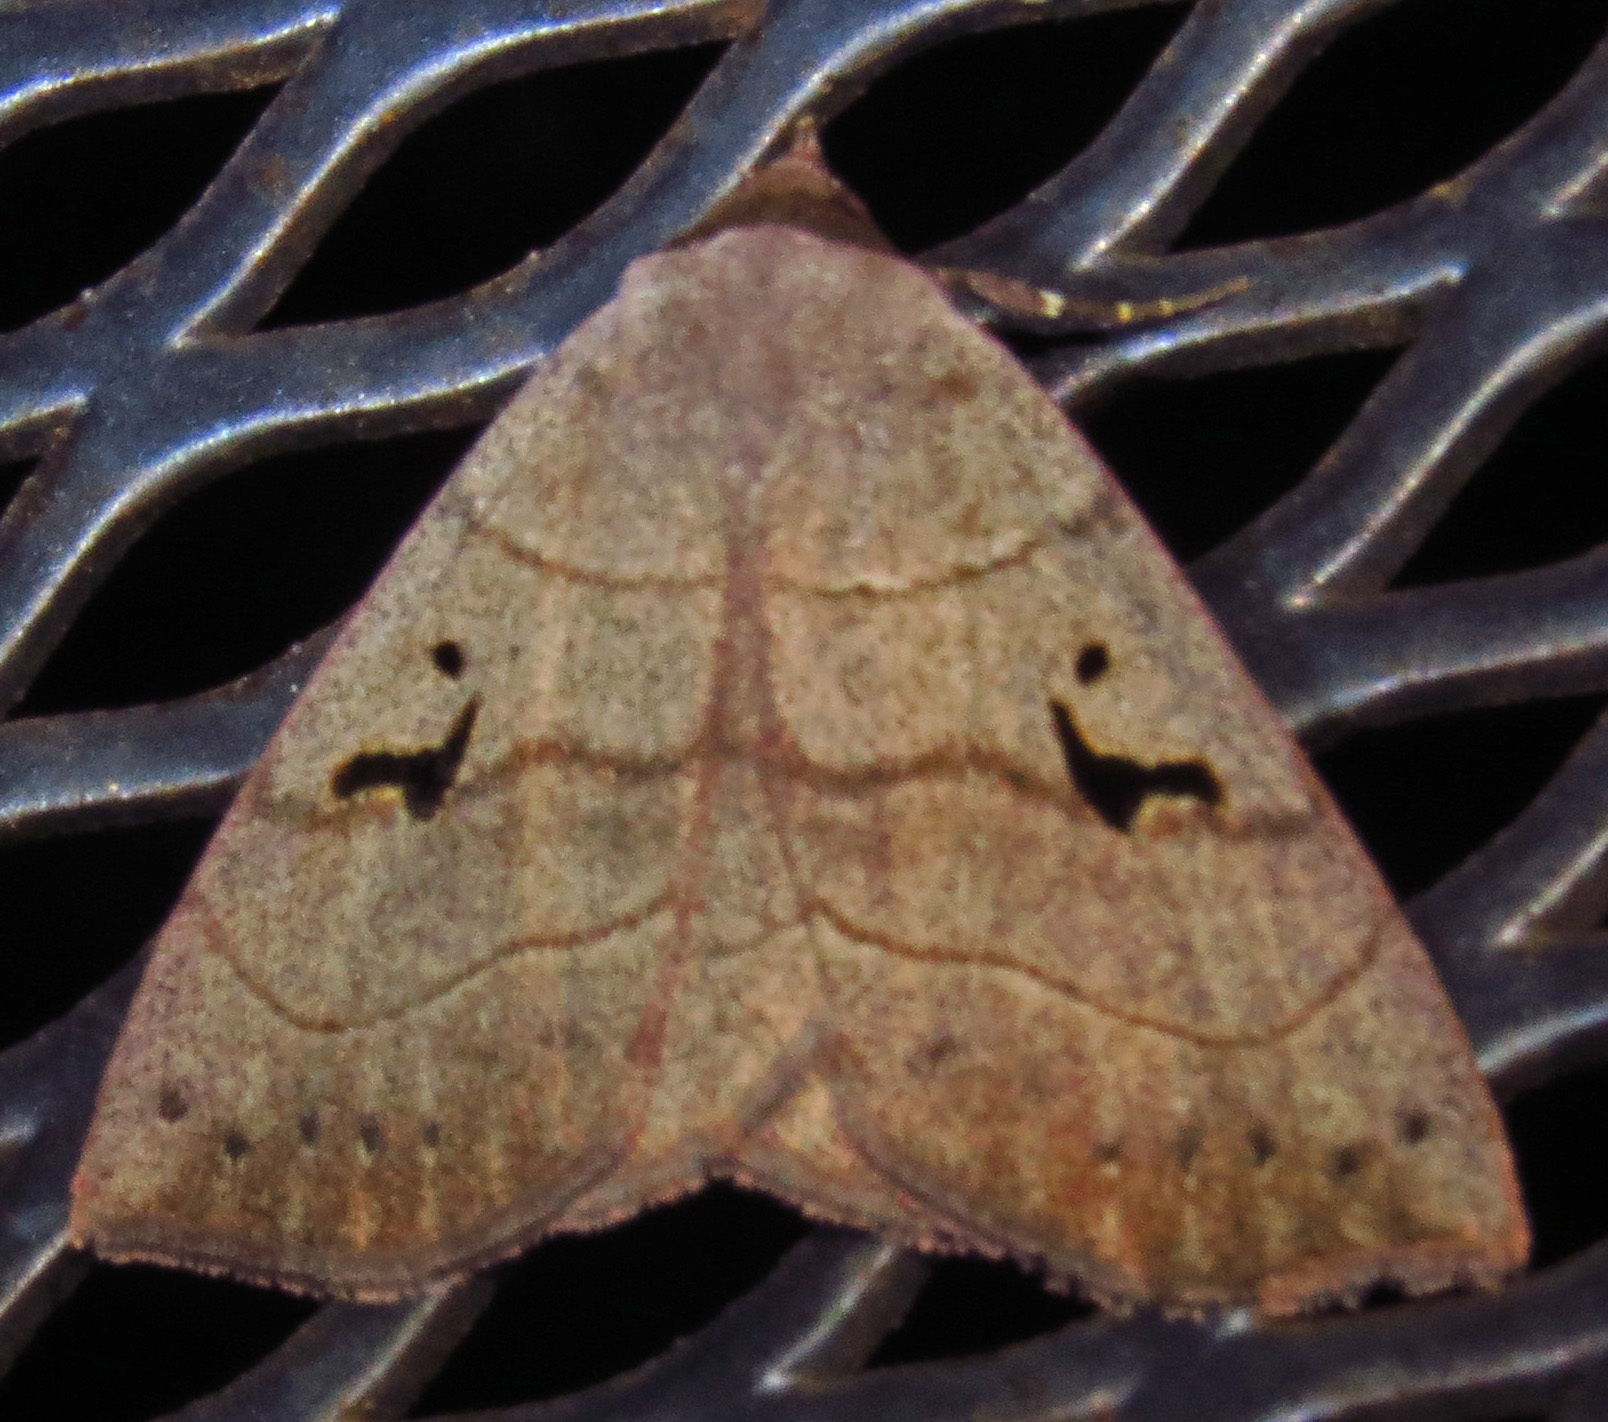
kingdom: Animalia
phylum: Arthropoda
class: Insecta
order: Lepidoptera
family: Erebidae
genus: Panopoda
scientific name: Panopoda carneicosta
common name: Brown panopoda moth
